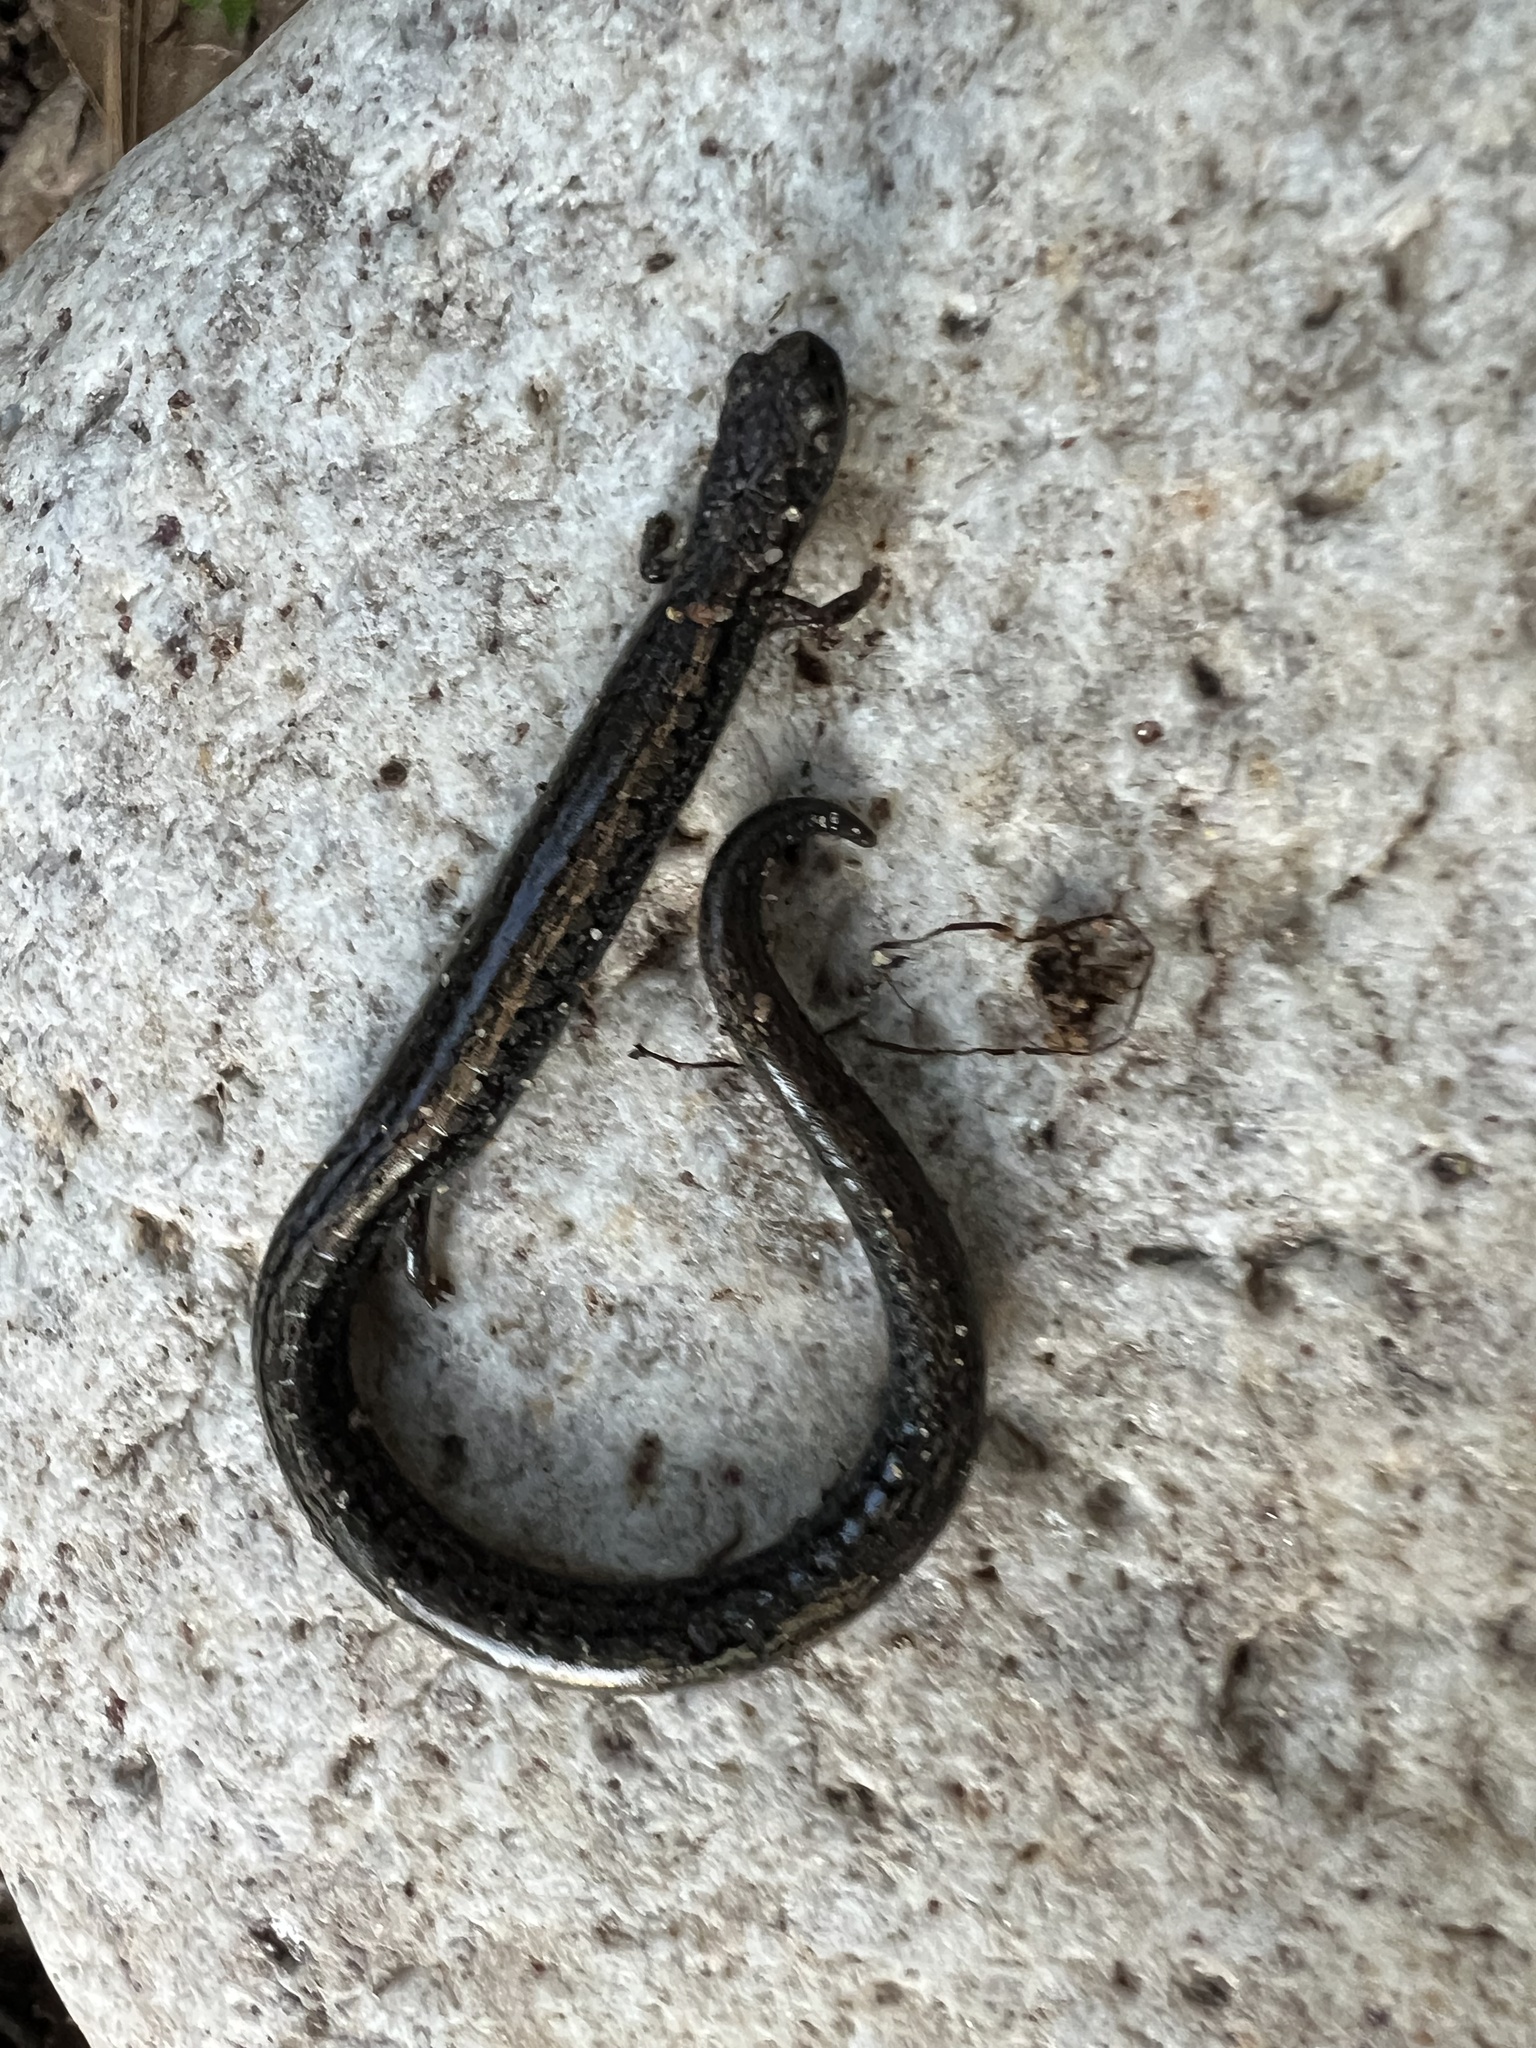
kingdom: Animalia
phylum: Chordata
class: Amphibia
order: Caudata
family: Plethodontidae
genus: Batrachoseps
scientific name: Batrachoseps gavilanensis
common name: Gabilan mountains slender salamander
